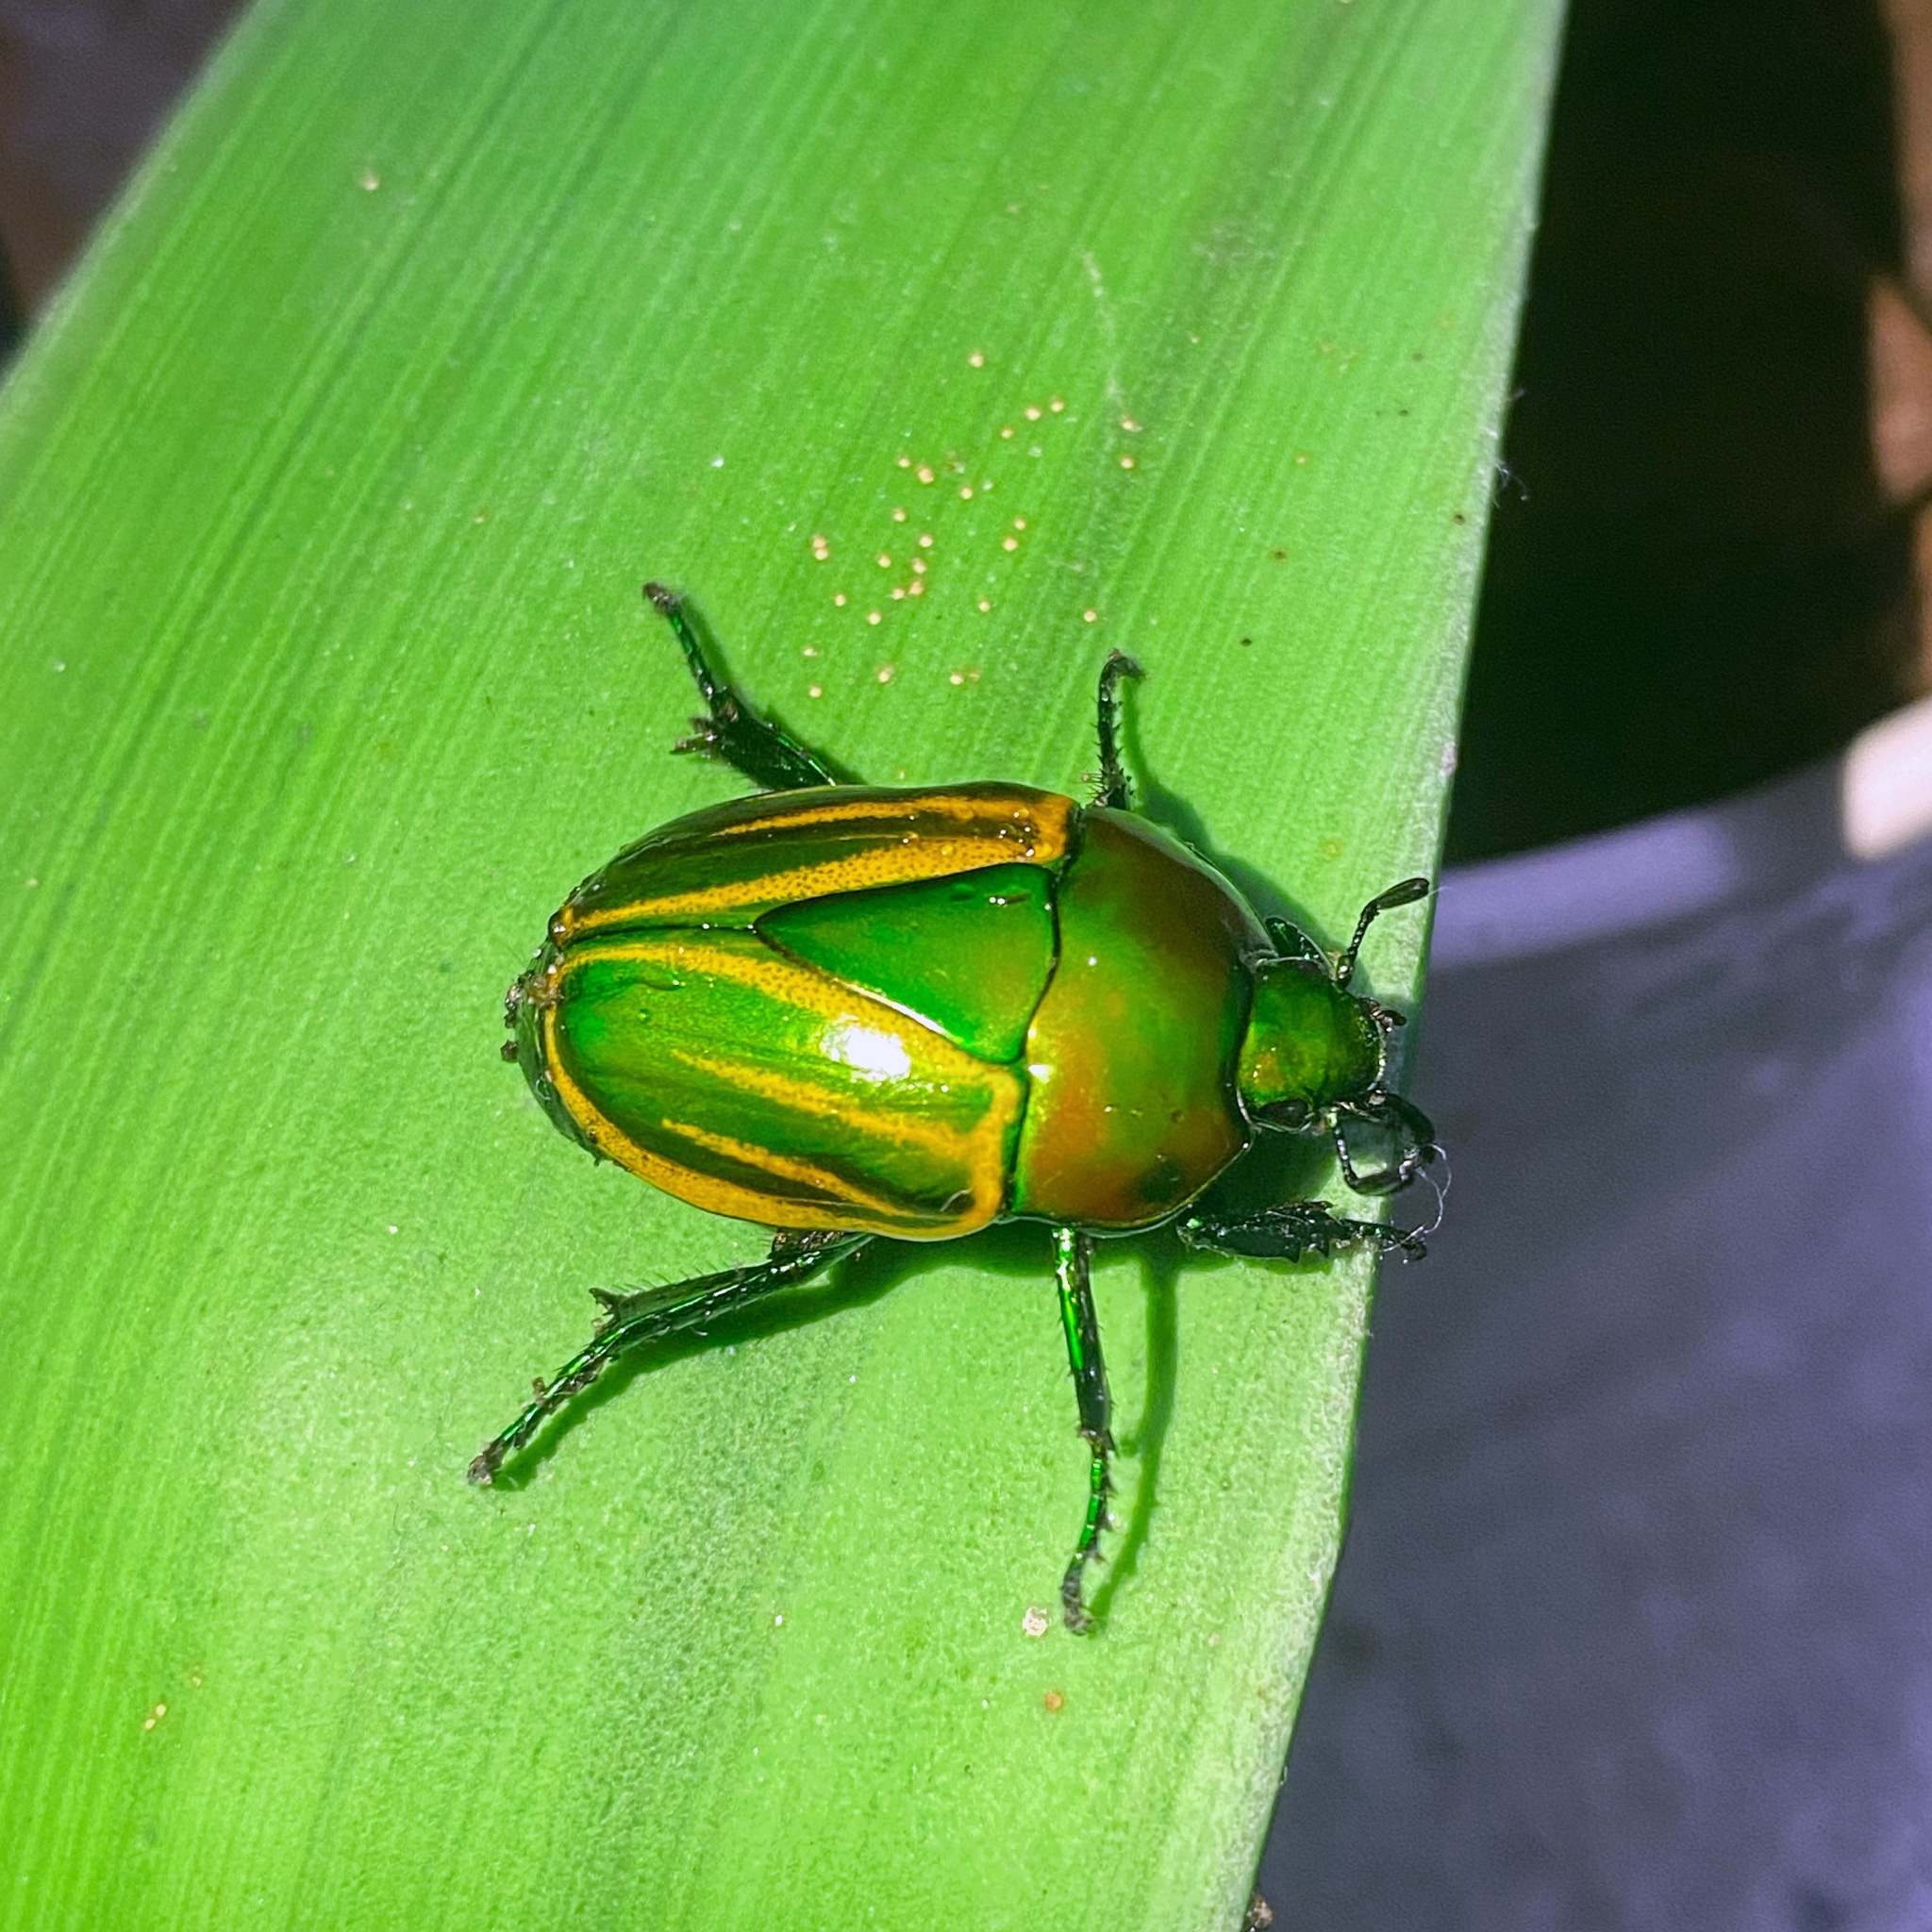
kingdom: Animalia
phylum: Arthropoda
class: Insecta
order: Coleoptera
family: Scarabaeidae
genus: Macraspis
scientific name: Macraspis festiva
